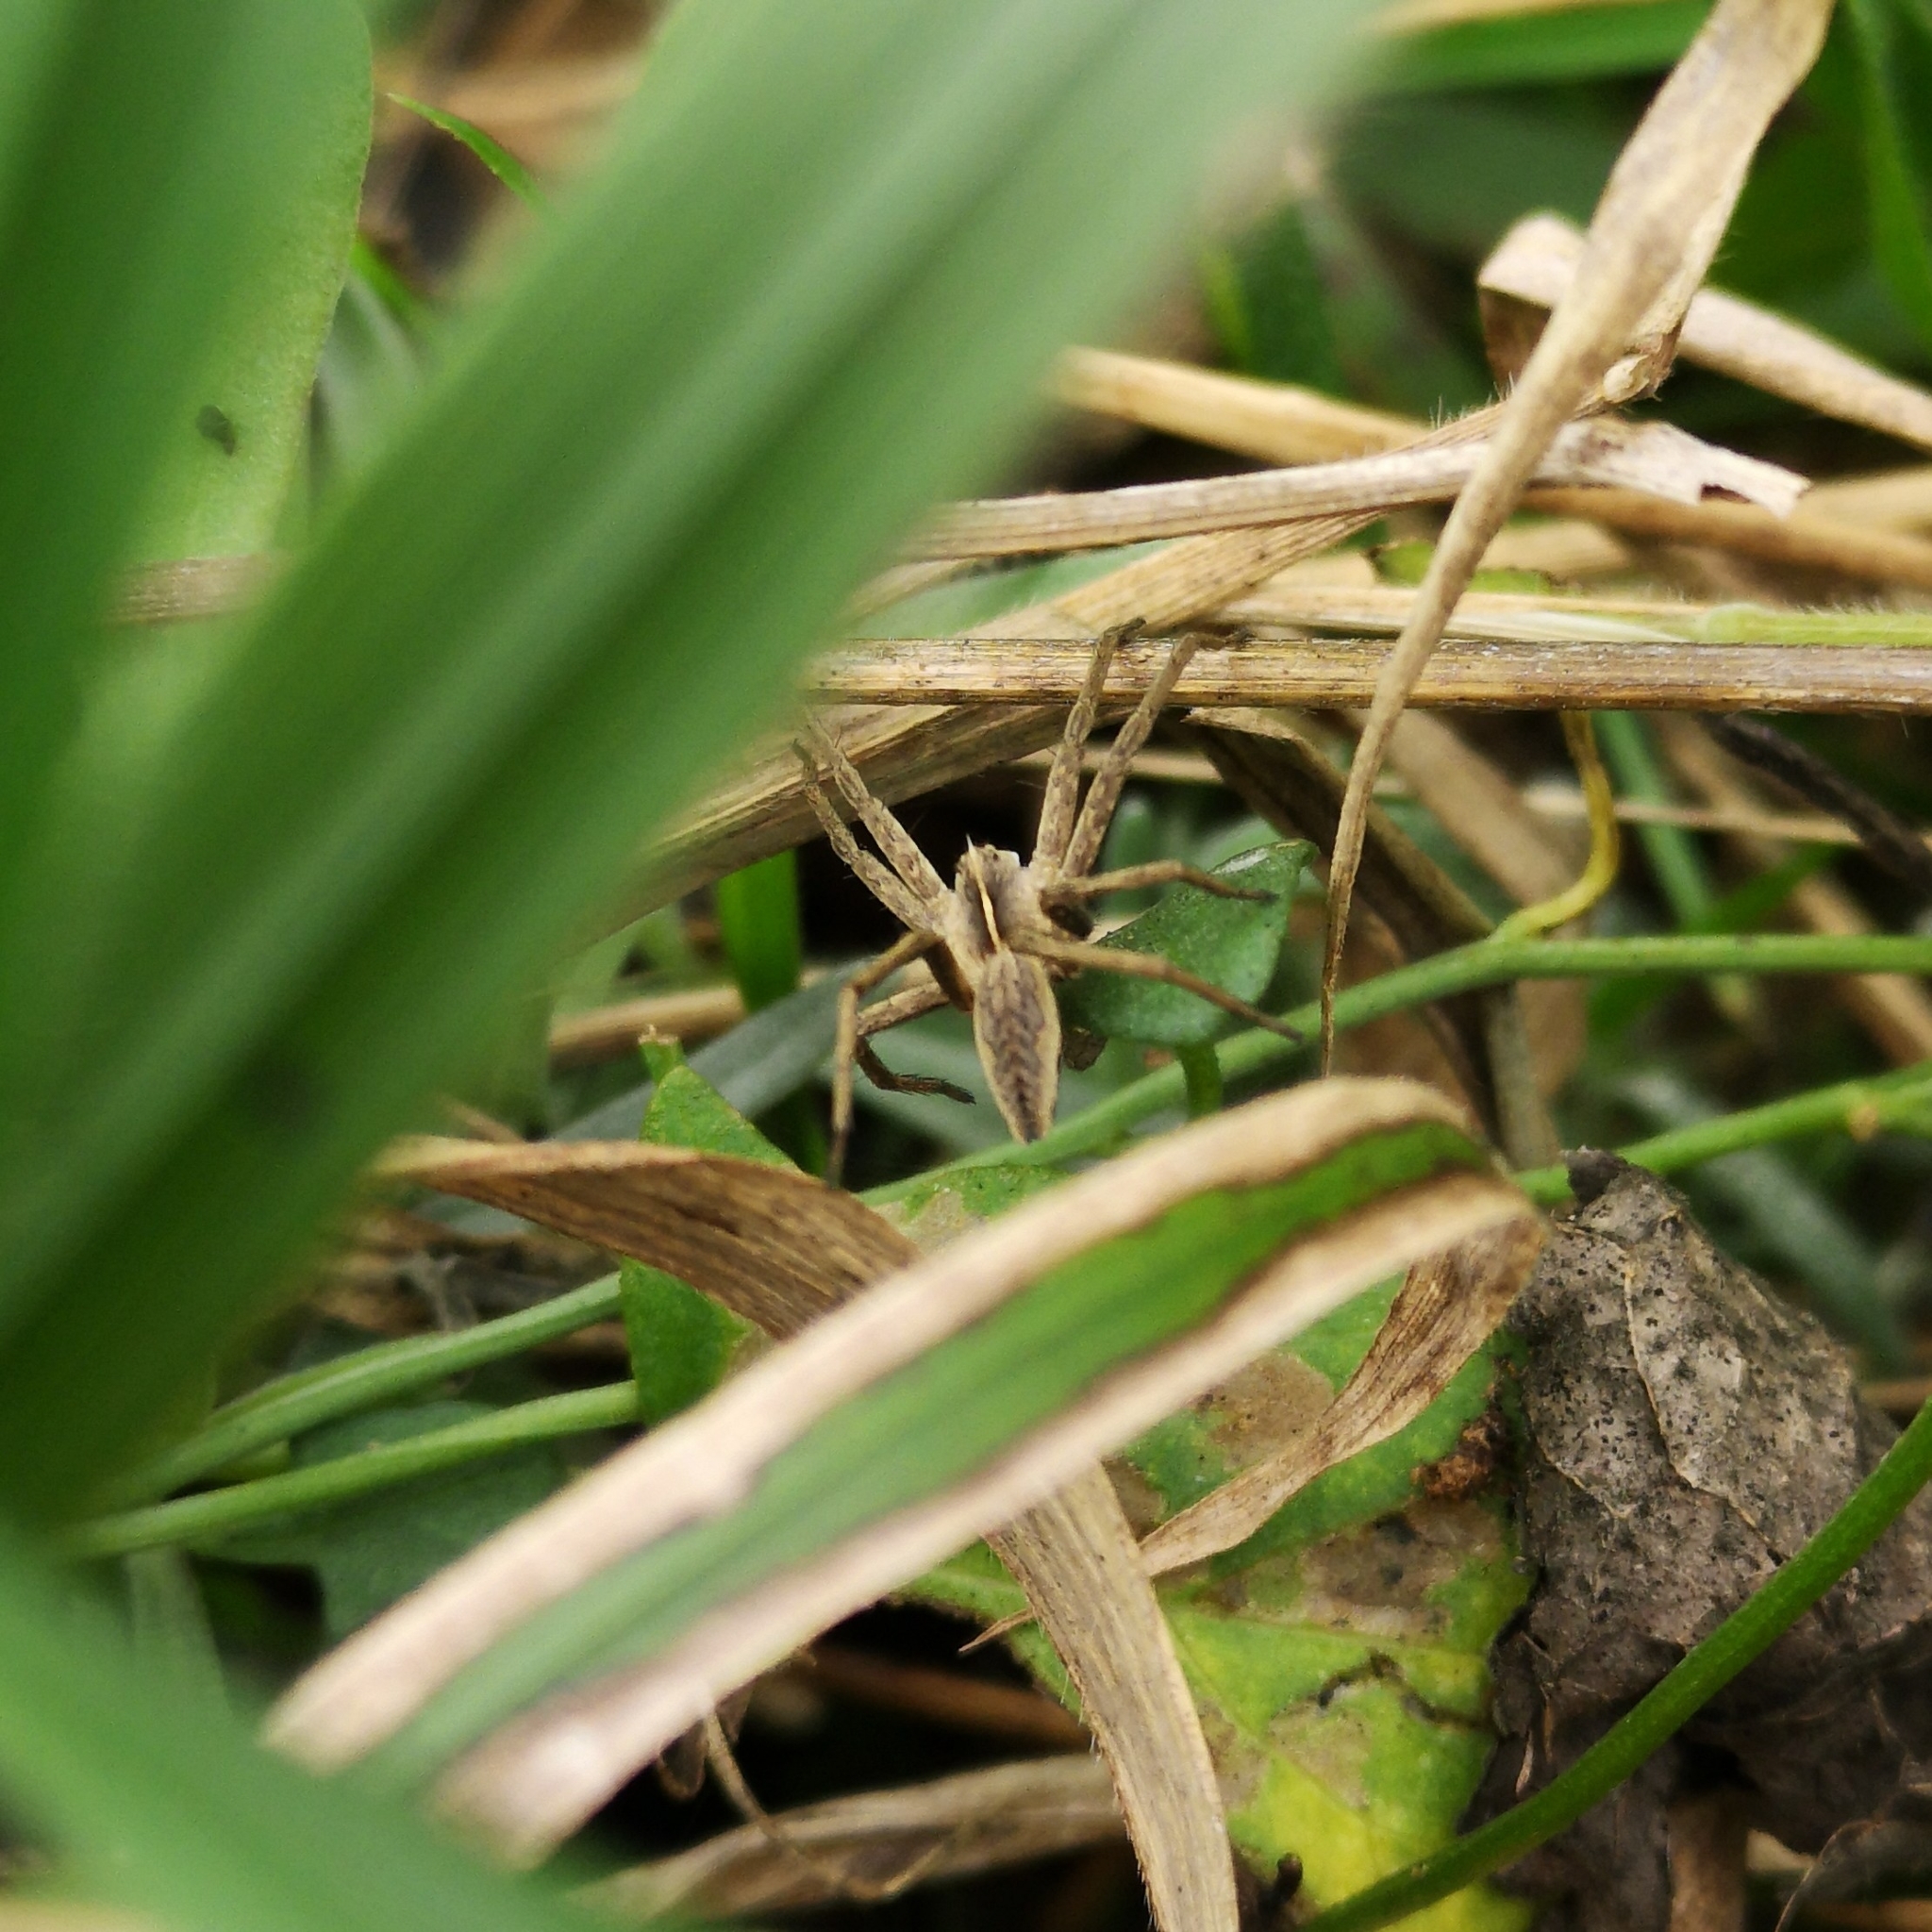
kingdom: Animalia
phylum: Arthropoda
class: Arachnida
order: Araneae
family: Pisauridae
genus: Pisaura
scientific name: Pisaura mirabilis
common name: Tent spider
